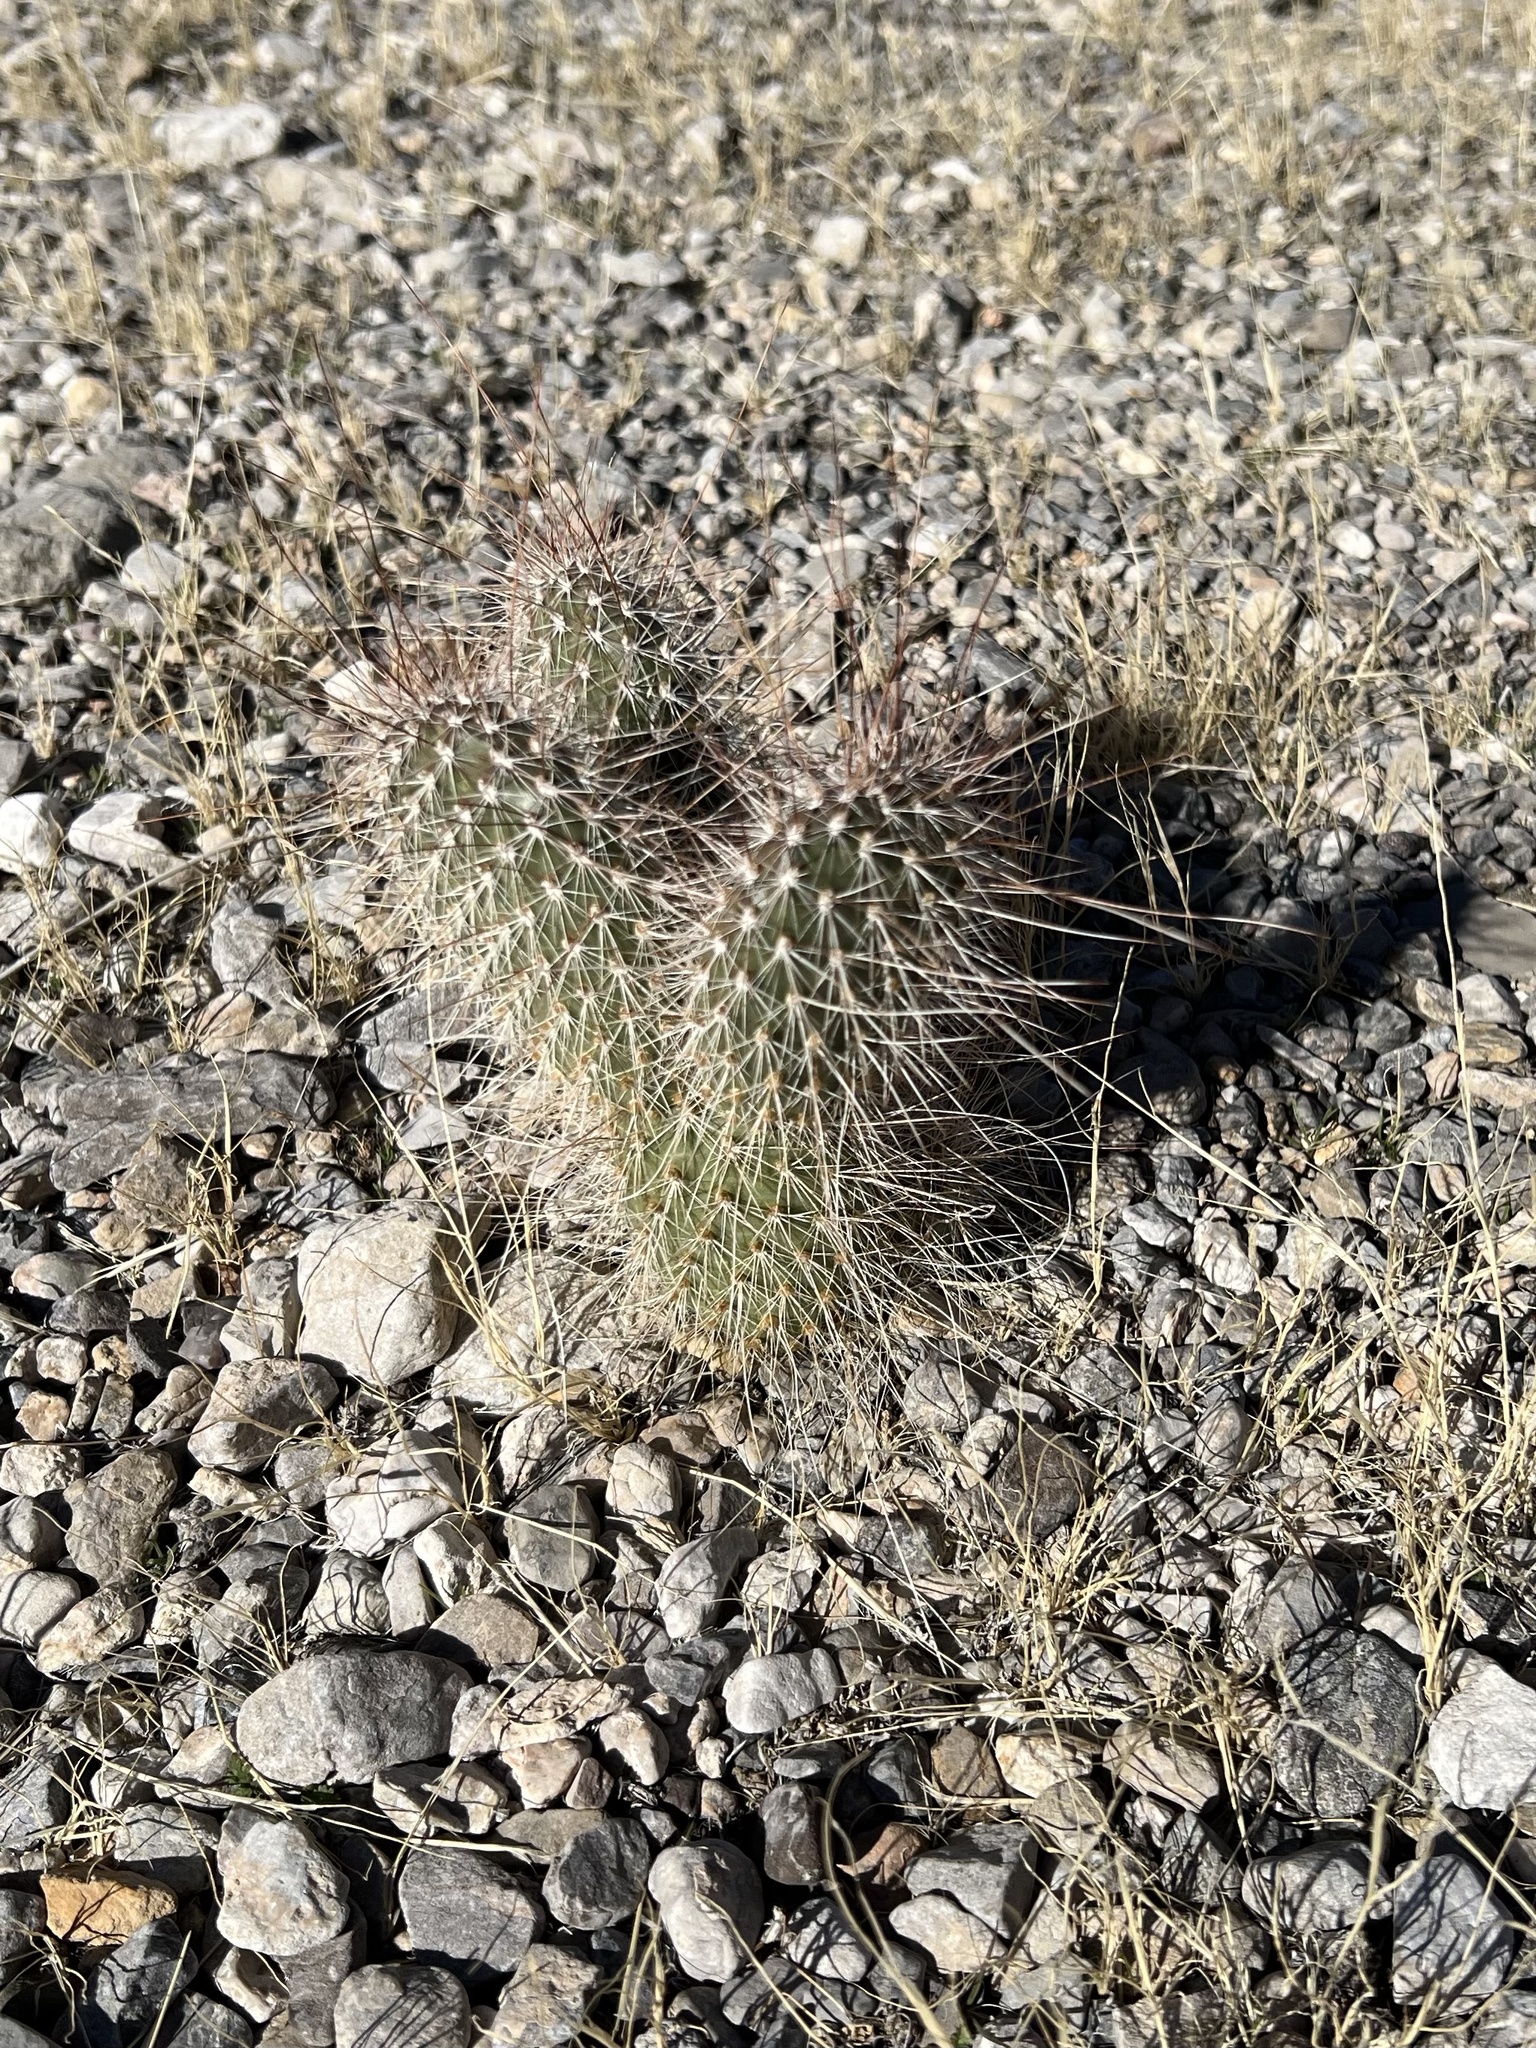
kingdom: Plantae
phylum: Tracheophyta
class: Magnoliopsida
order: Caryophyllales
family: Cactaceae
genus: Opuntia
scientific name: Opuntia polyacantha
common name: Plains prickly-pear
